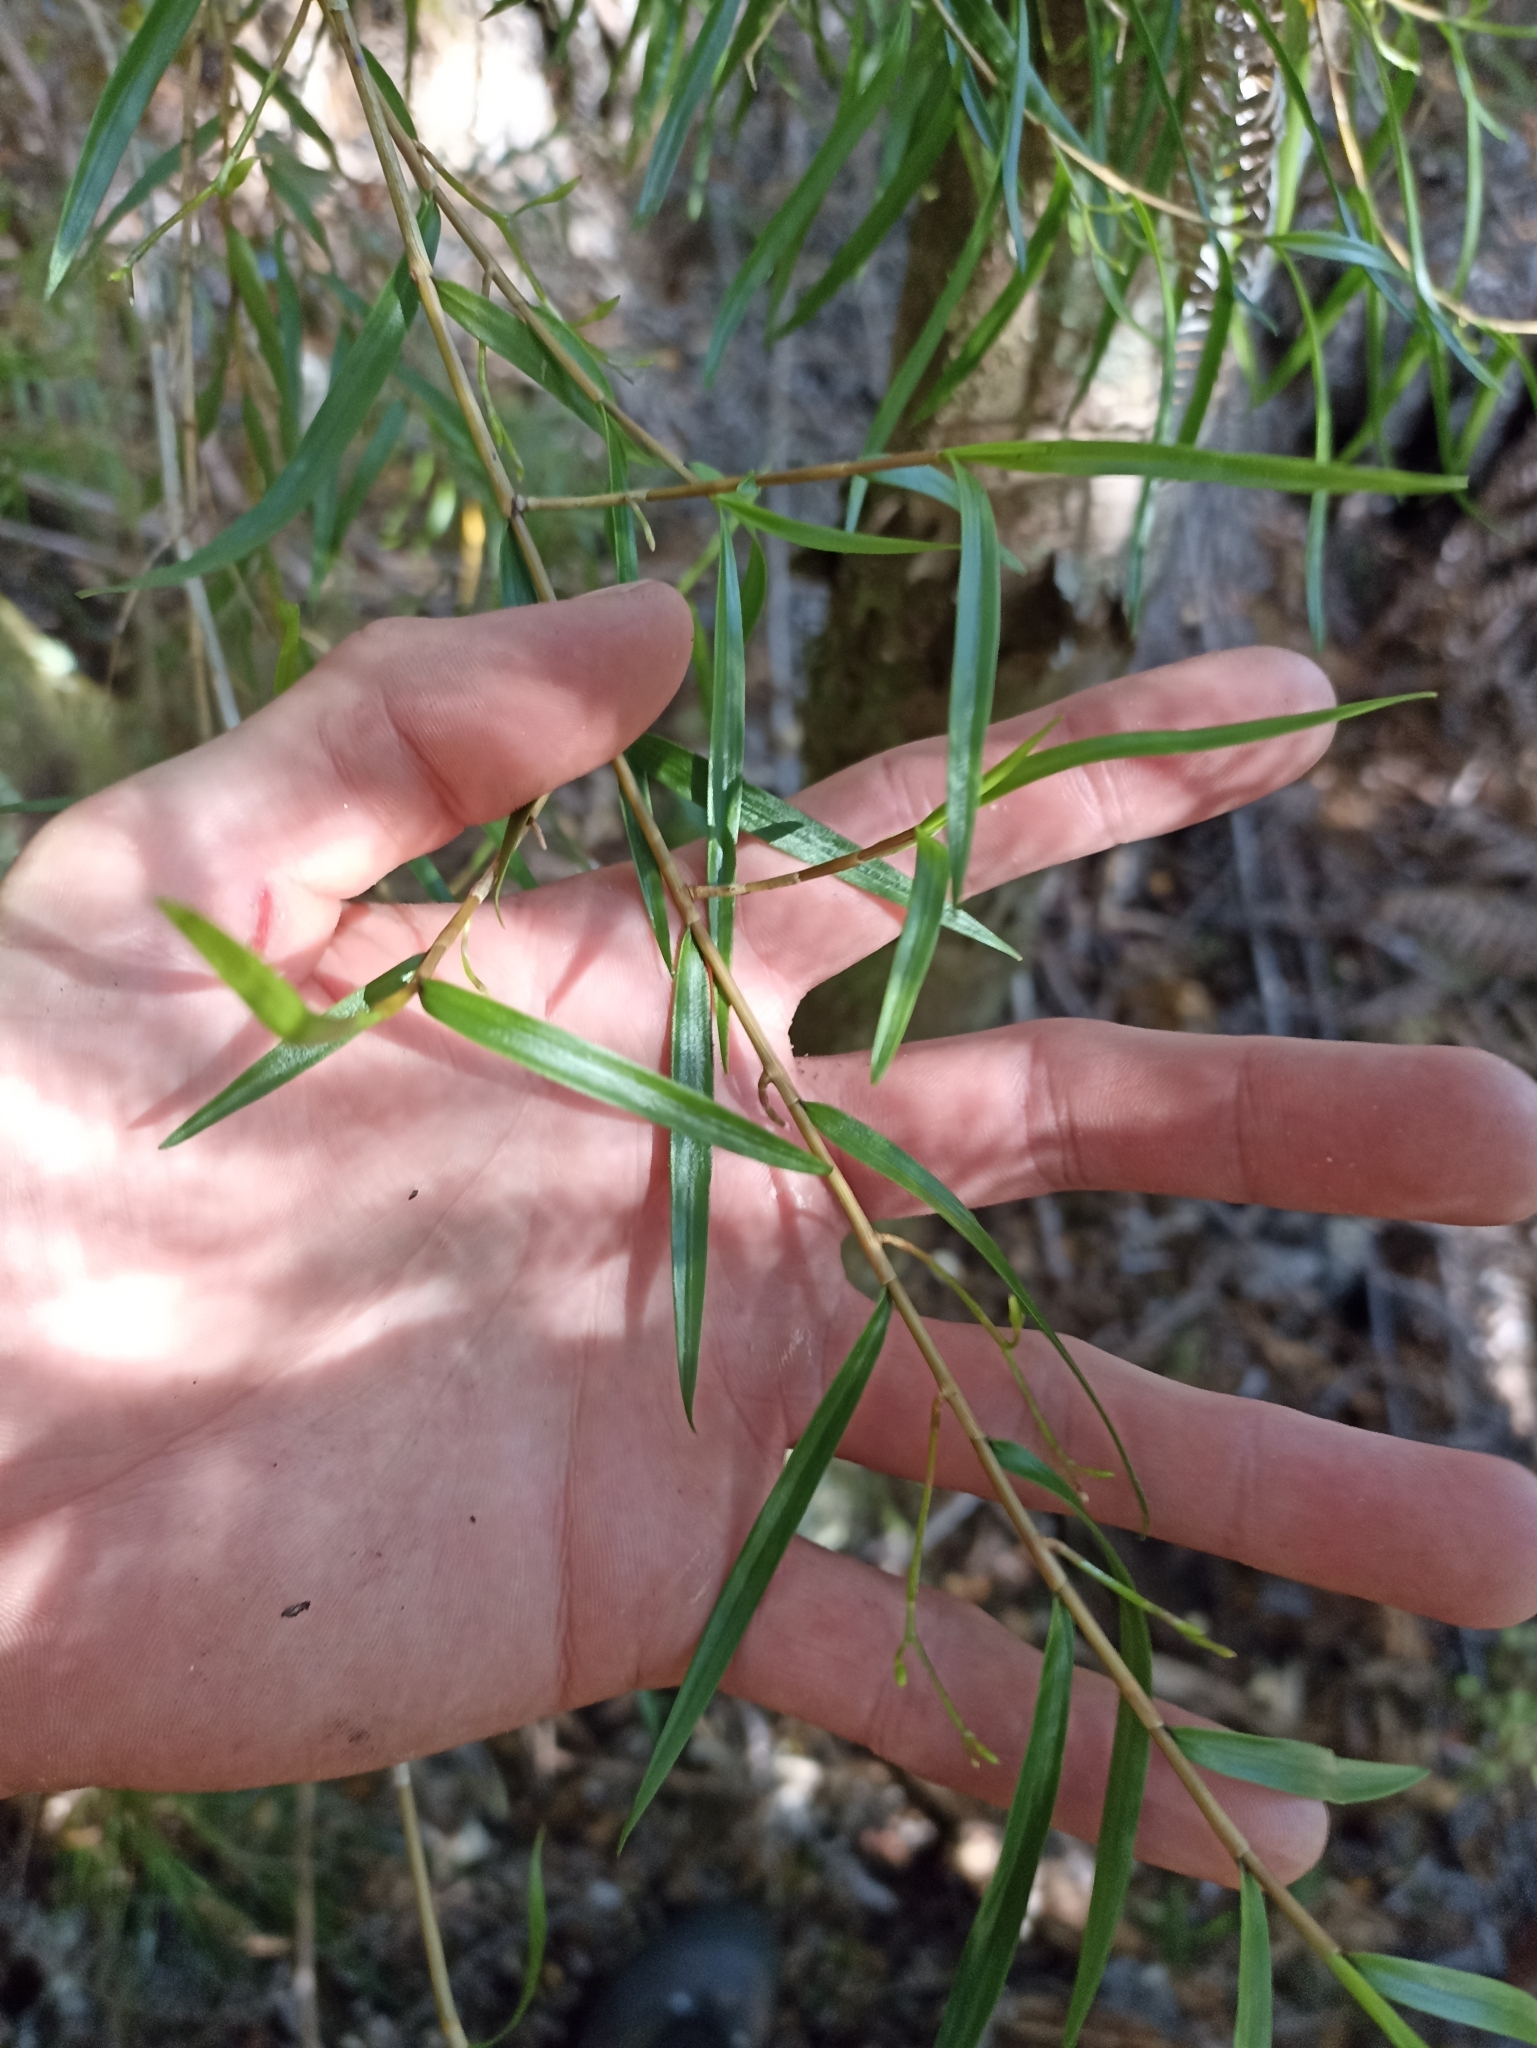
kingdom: Plantae
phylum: Tracheophyta
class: Liliopsida
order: Asparagales
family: Orchidaceae
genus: Dendrobium
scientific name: Dendrobium cunninghamii
